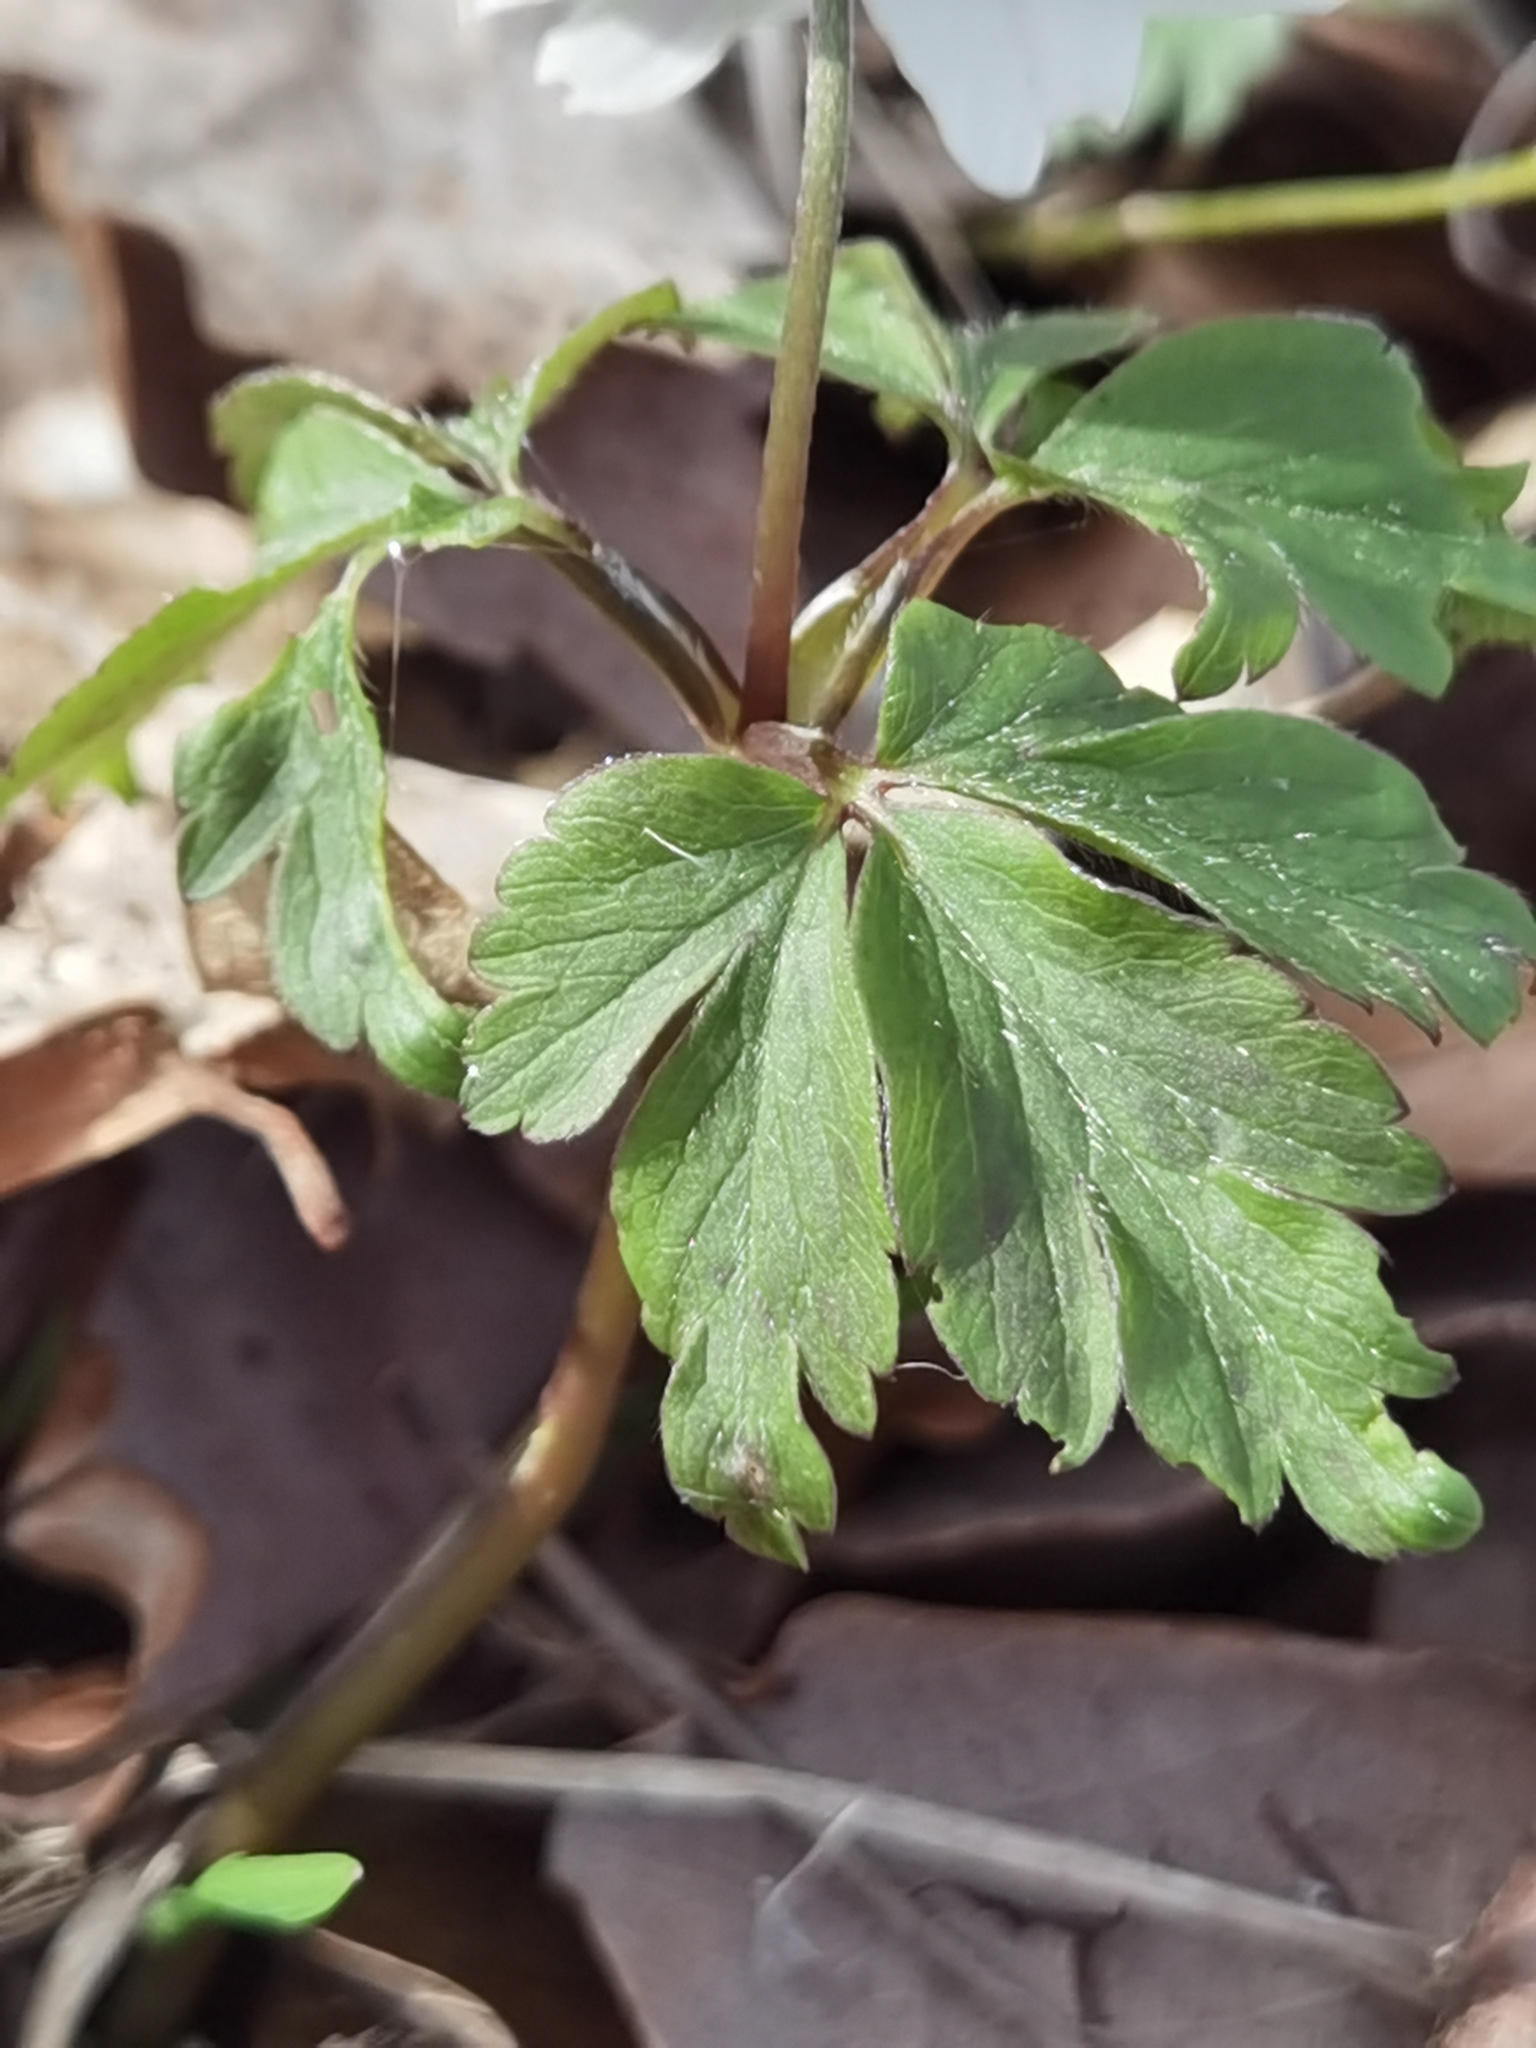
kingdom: Plantae
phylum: Tracheophyta
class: Magnoliopsida
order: Ranunculales
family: Ranunculaceae
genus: Anemone
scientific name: Anemone nemorosa
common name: Wood anemone
